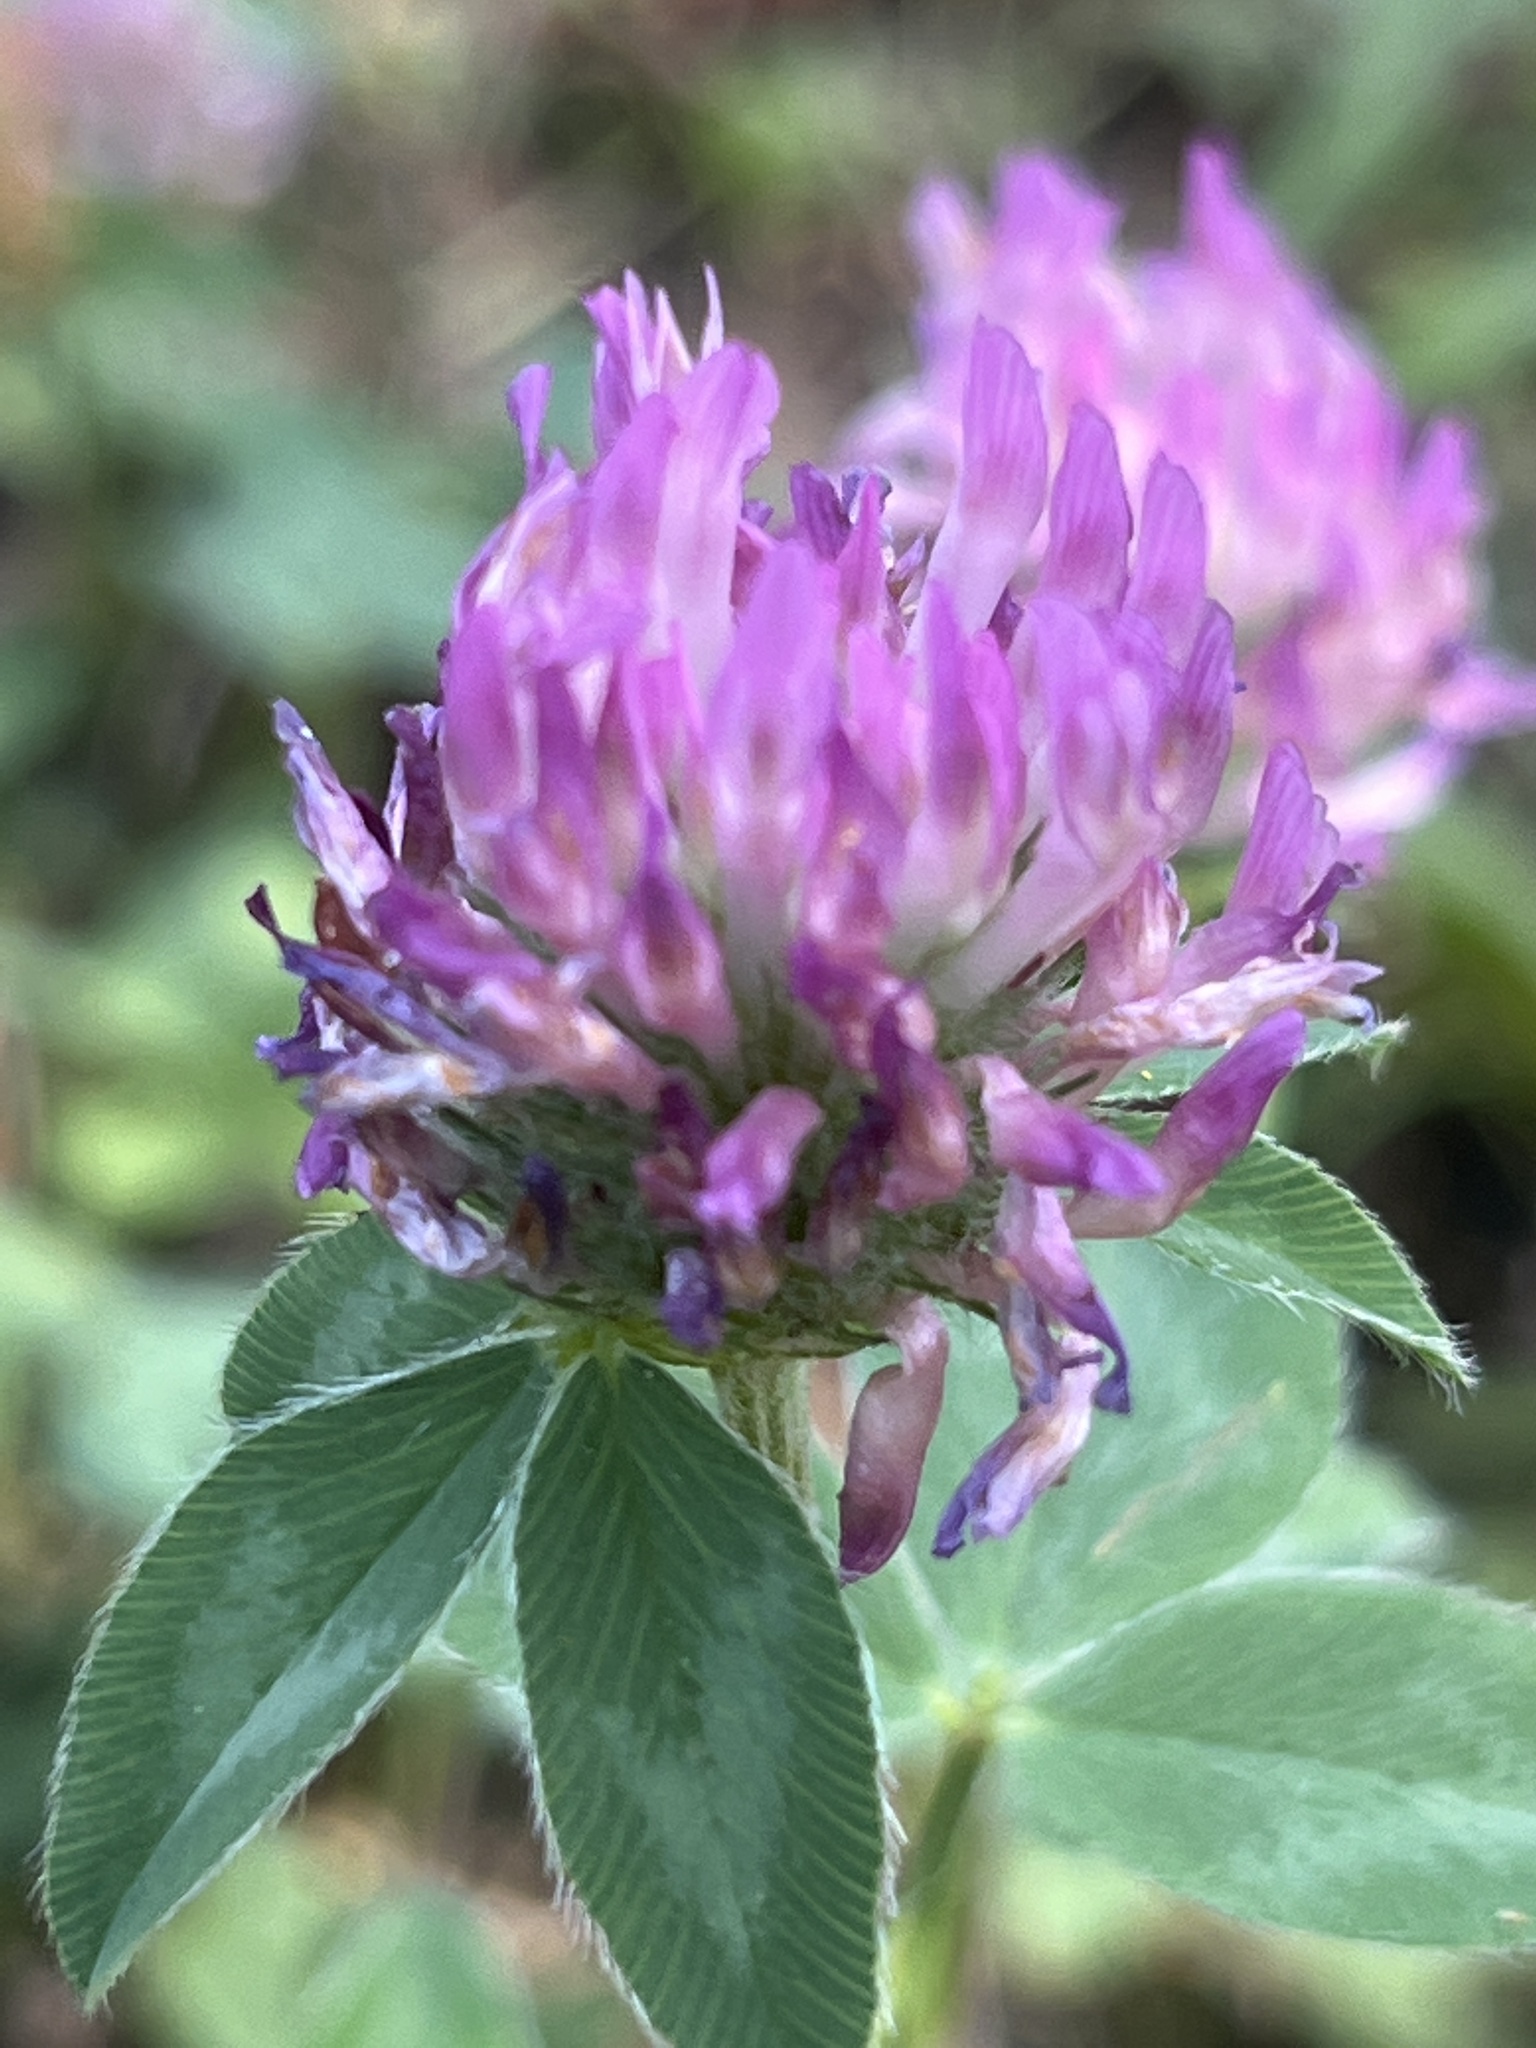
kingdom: Plantae
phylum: Tracheophyta
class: Magnoliopsida
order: Fabales
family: Fabaceae
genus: Trifolium
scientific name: Trifolium pratense
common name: Red clover
